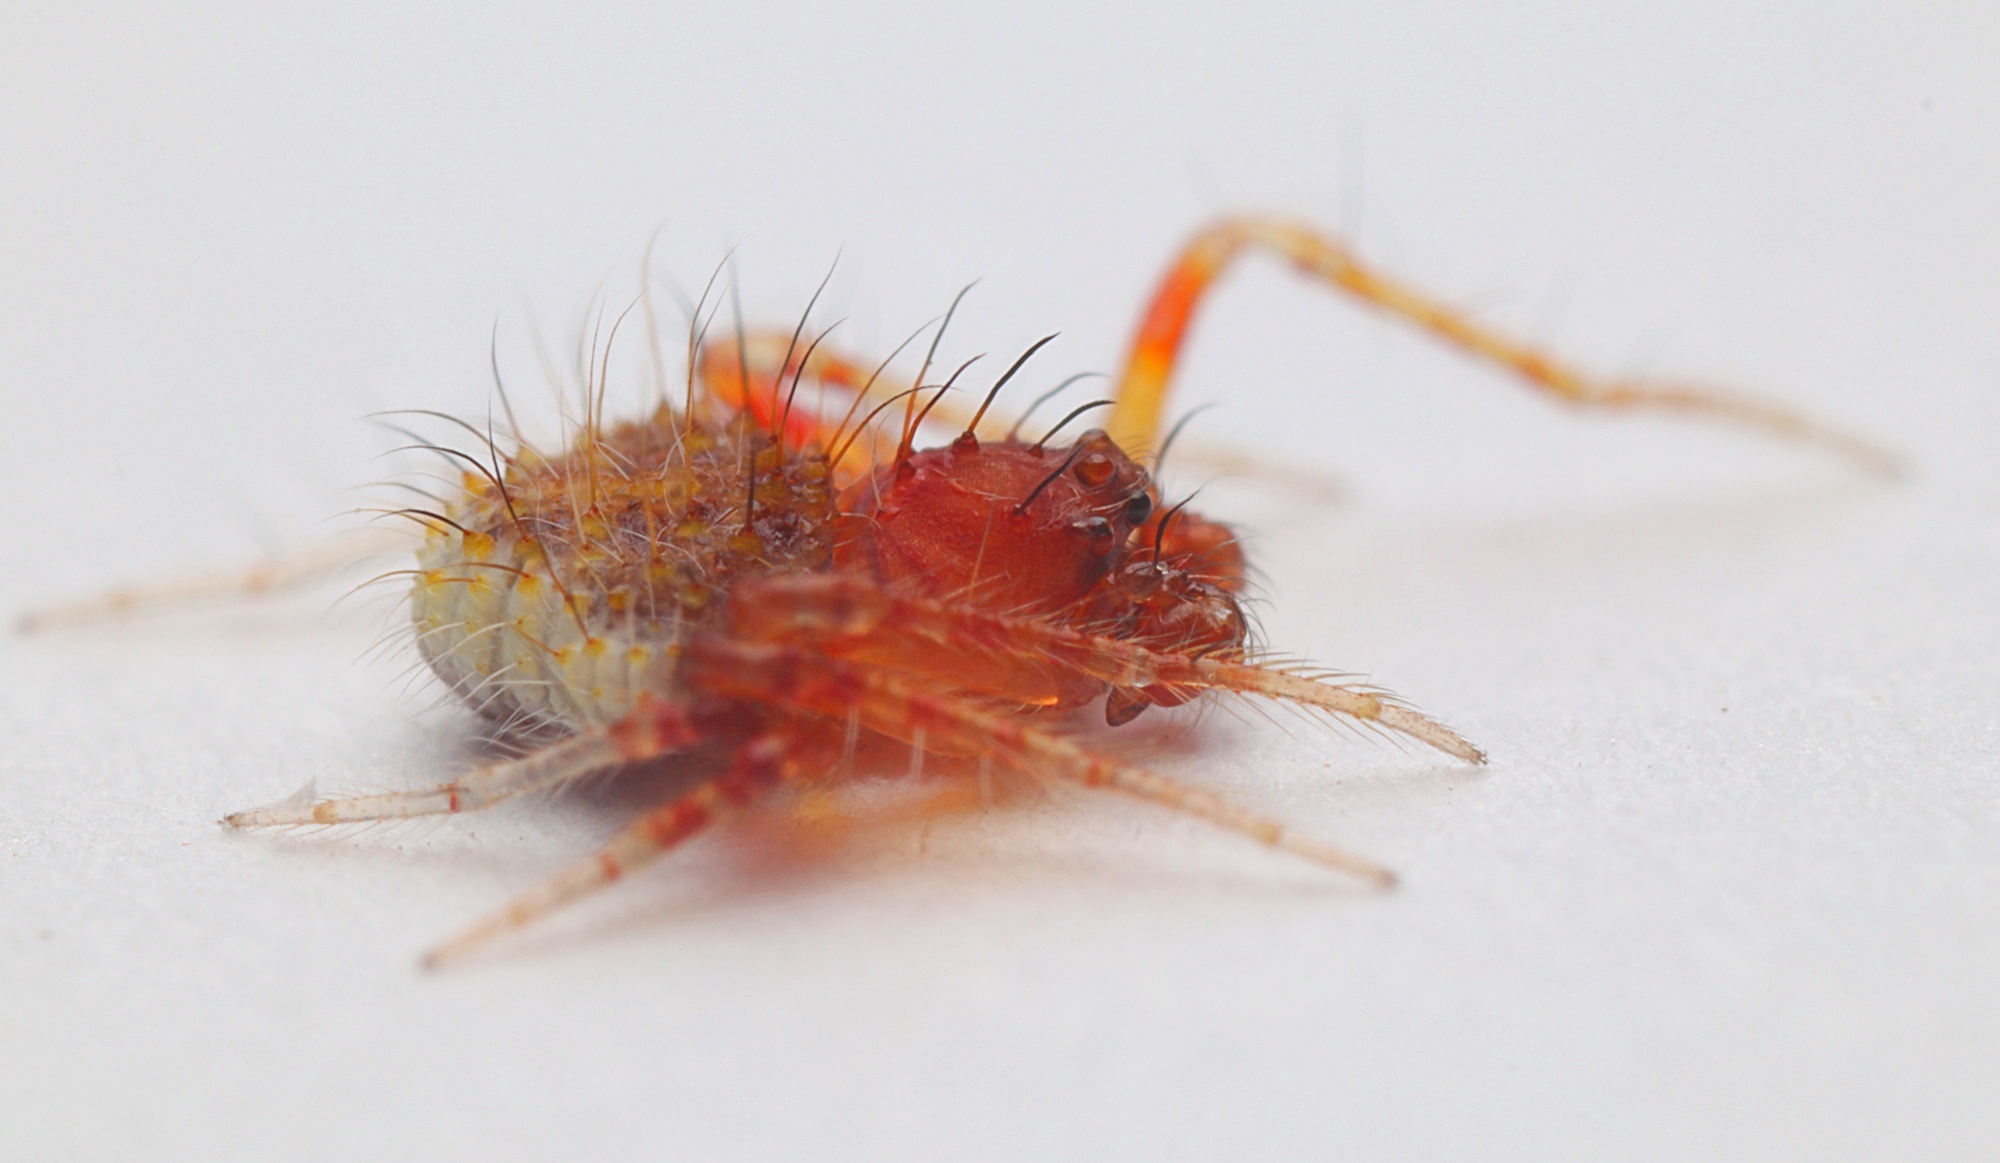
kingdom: Animalia
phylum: Arthropoda
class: Arachnida
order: Araneae
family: Araneidae
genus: Poecilopachys
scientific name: Poecilopachys australasia
